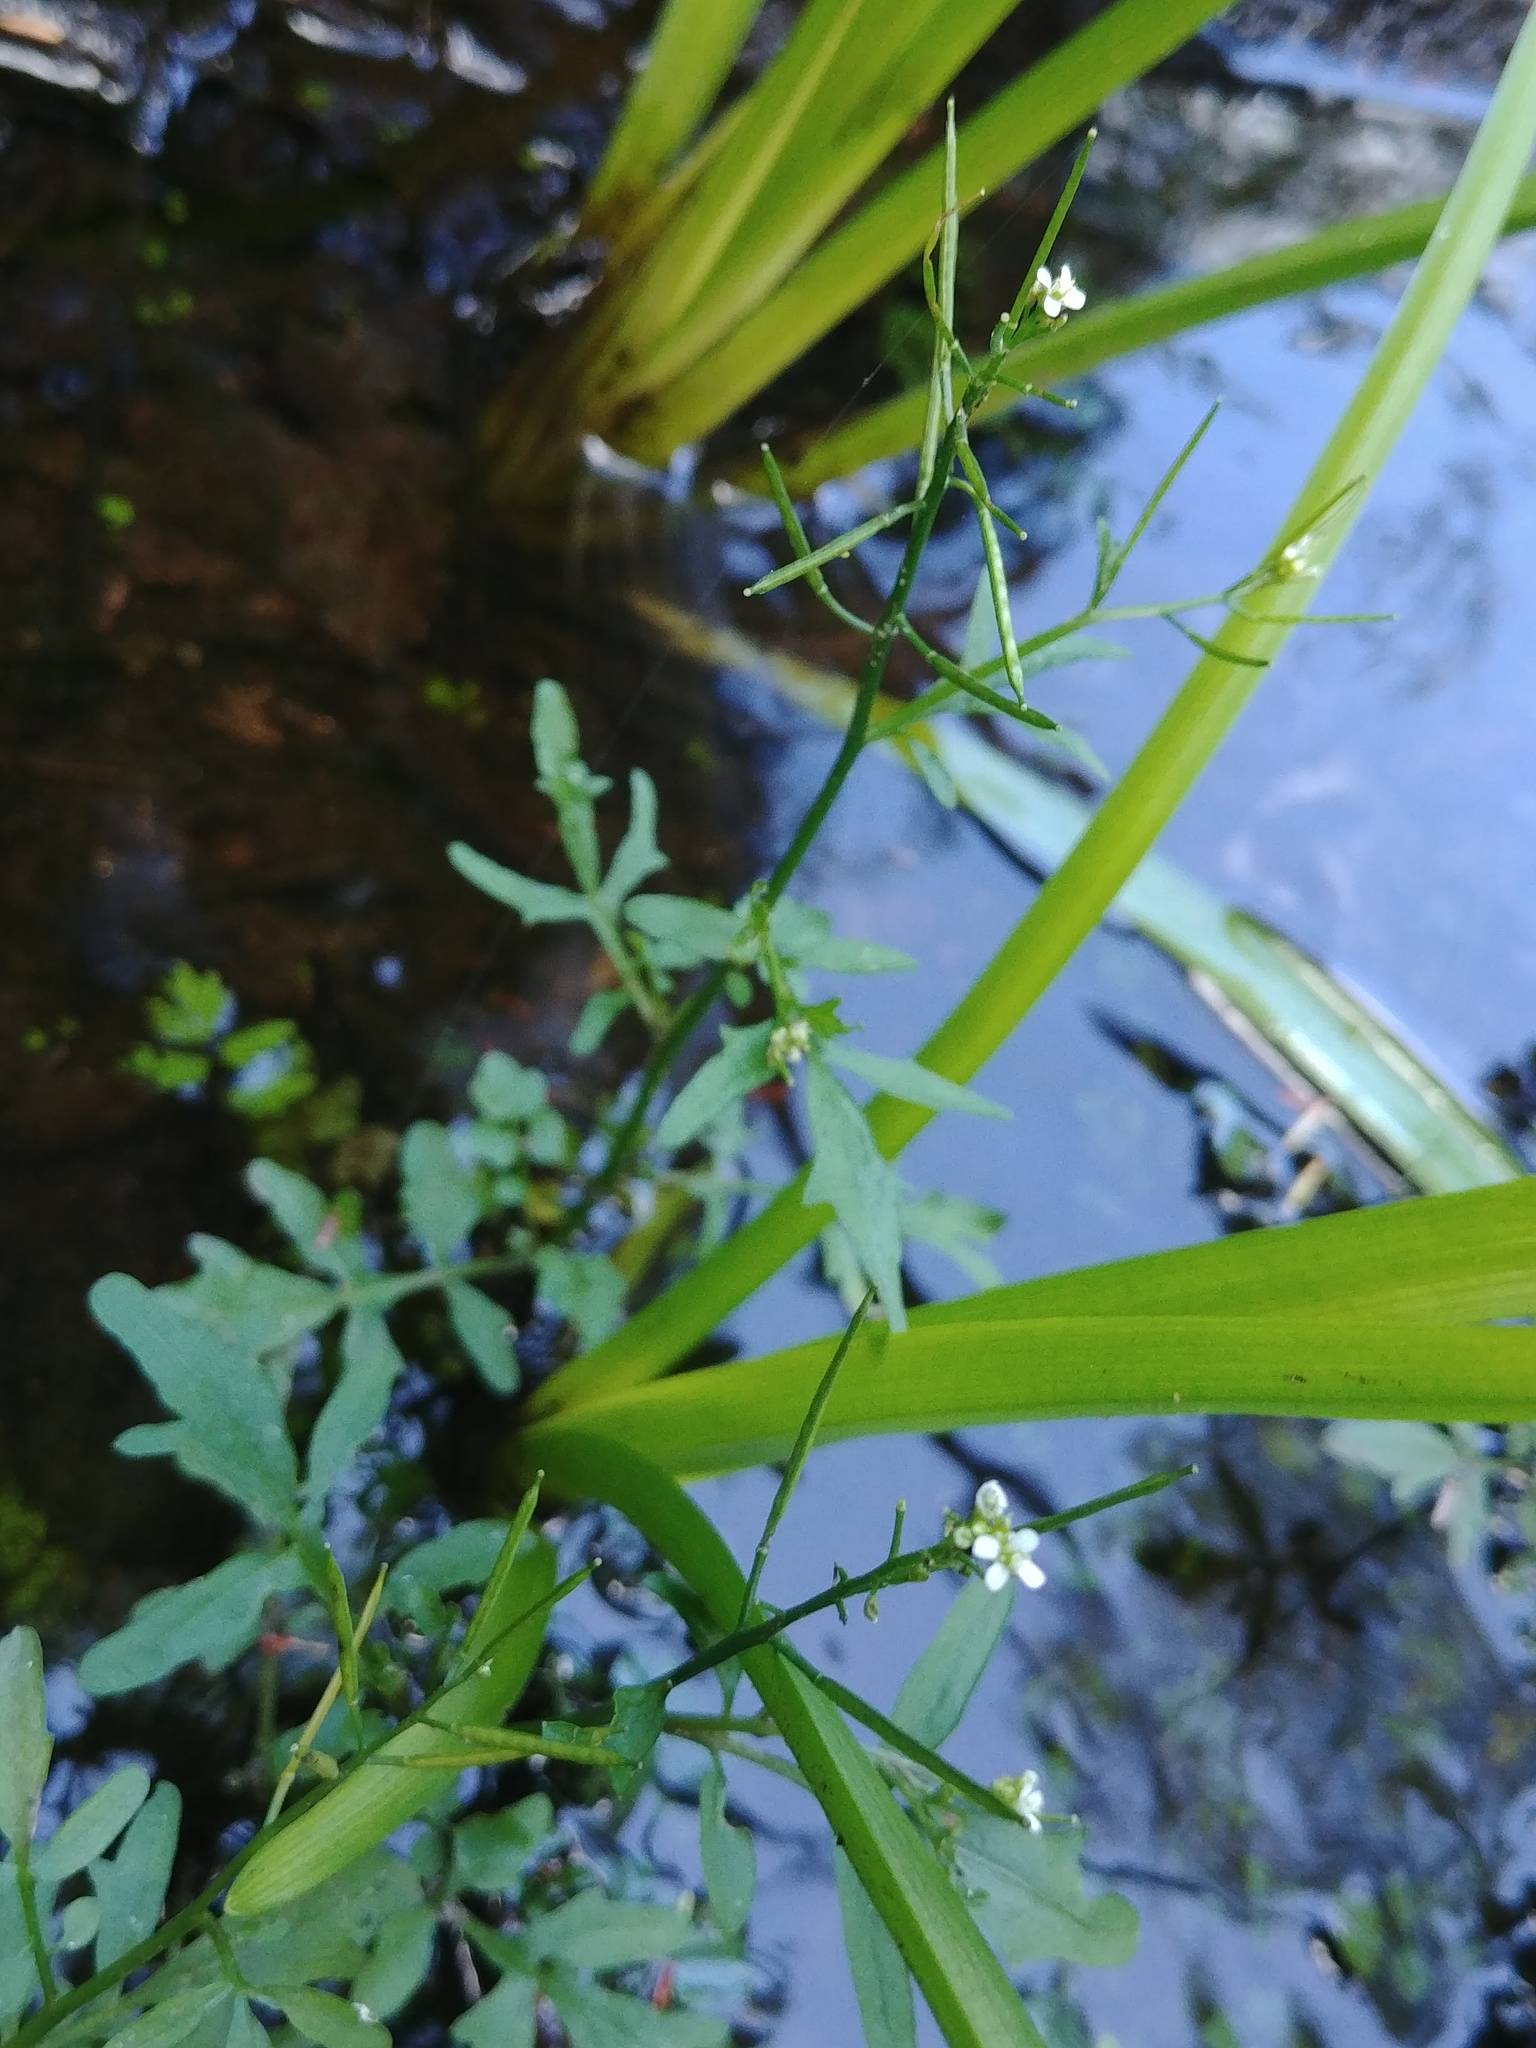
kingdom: Plantae
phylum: Tracheophyta
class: Magnoliopsida
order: Brassicales
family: Brassicaceae
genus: Cardamine
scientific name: Cardamine pensylvanica
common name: Pennsylvania bittercress
